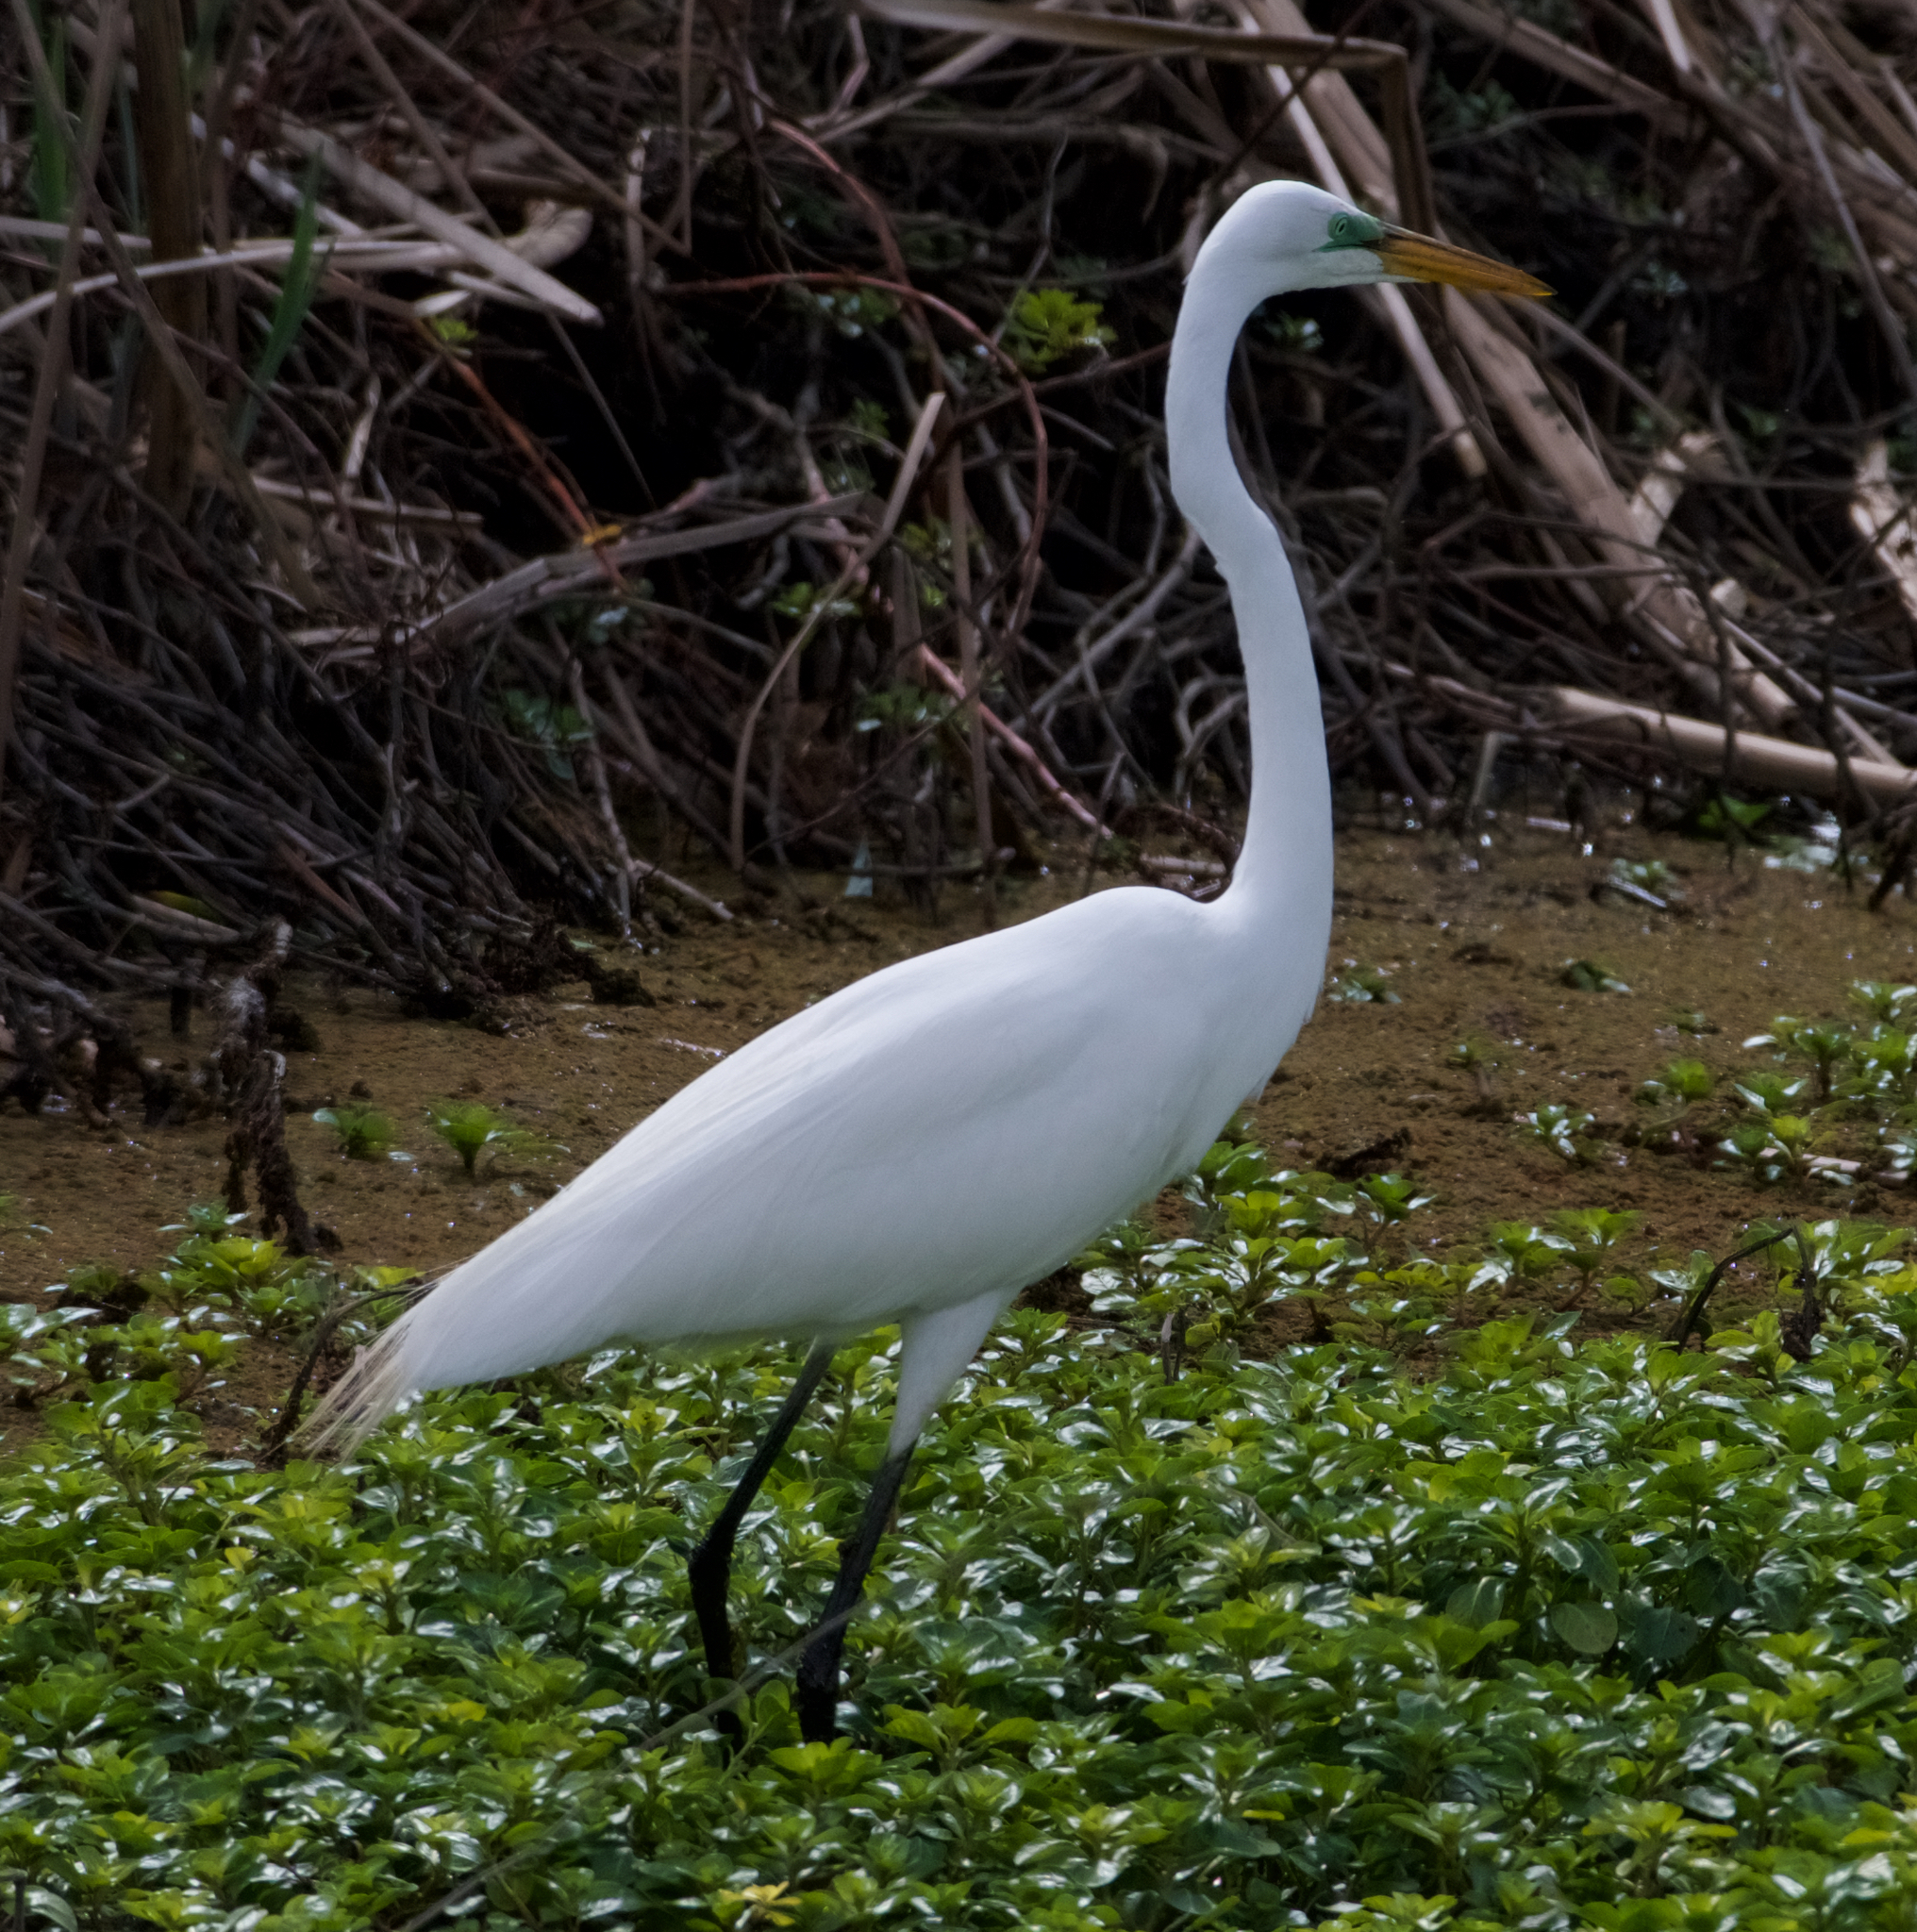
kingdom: Animalia
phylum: Chordata
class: Aves
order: Pelecaniformes
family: Ardeidae
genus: Ardea
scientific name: Ardea alba
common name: Great egret
